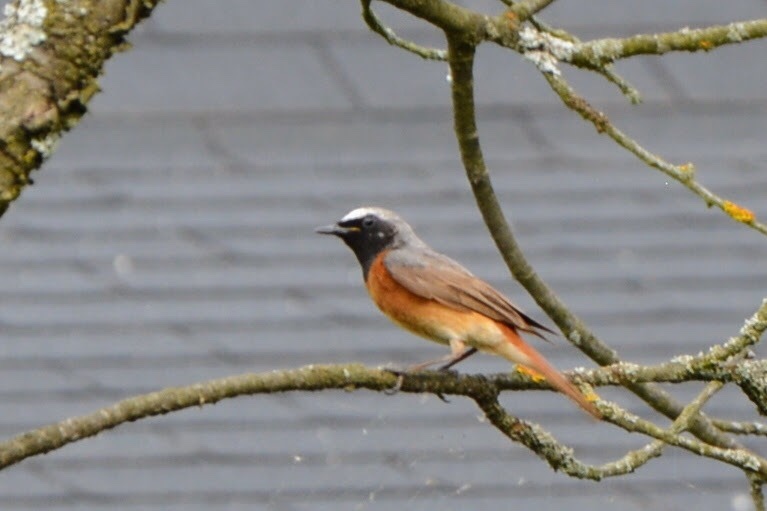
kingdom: Animalia
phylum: Chordata
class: Aves
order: Passeriformes
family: Muscicapidae
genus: Phoenicurus
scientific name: Phoenicurus phoenicurus
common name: Common redstart
